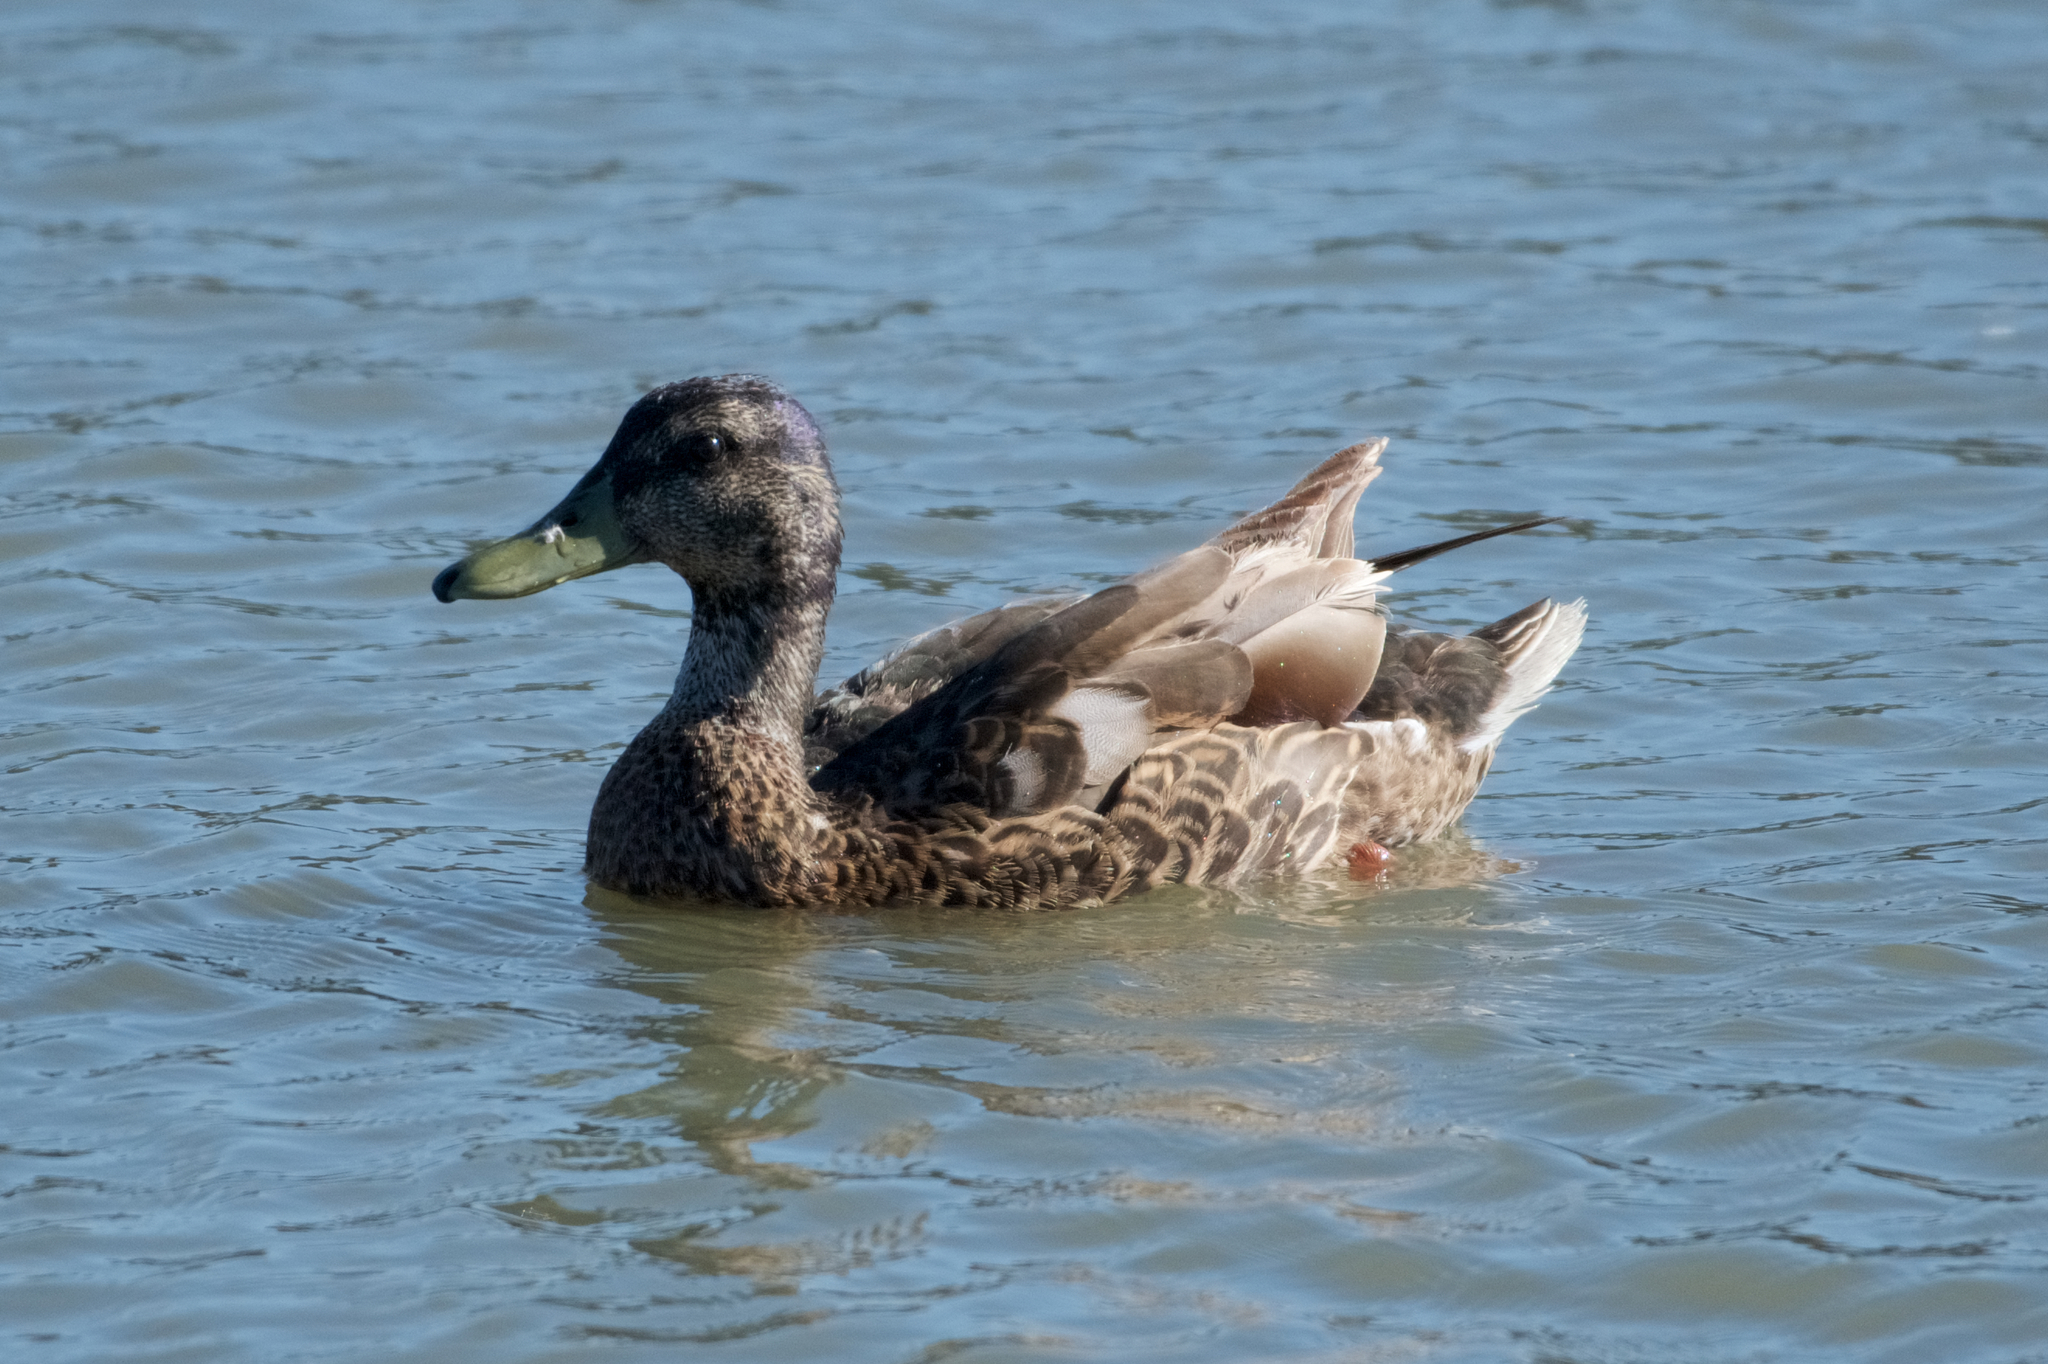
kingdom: Animalia
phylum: Chordata
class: Aves
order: Anseriformes
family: Anatidae
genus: Anas
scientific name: Anas platyrhynchos
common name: Mallard
